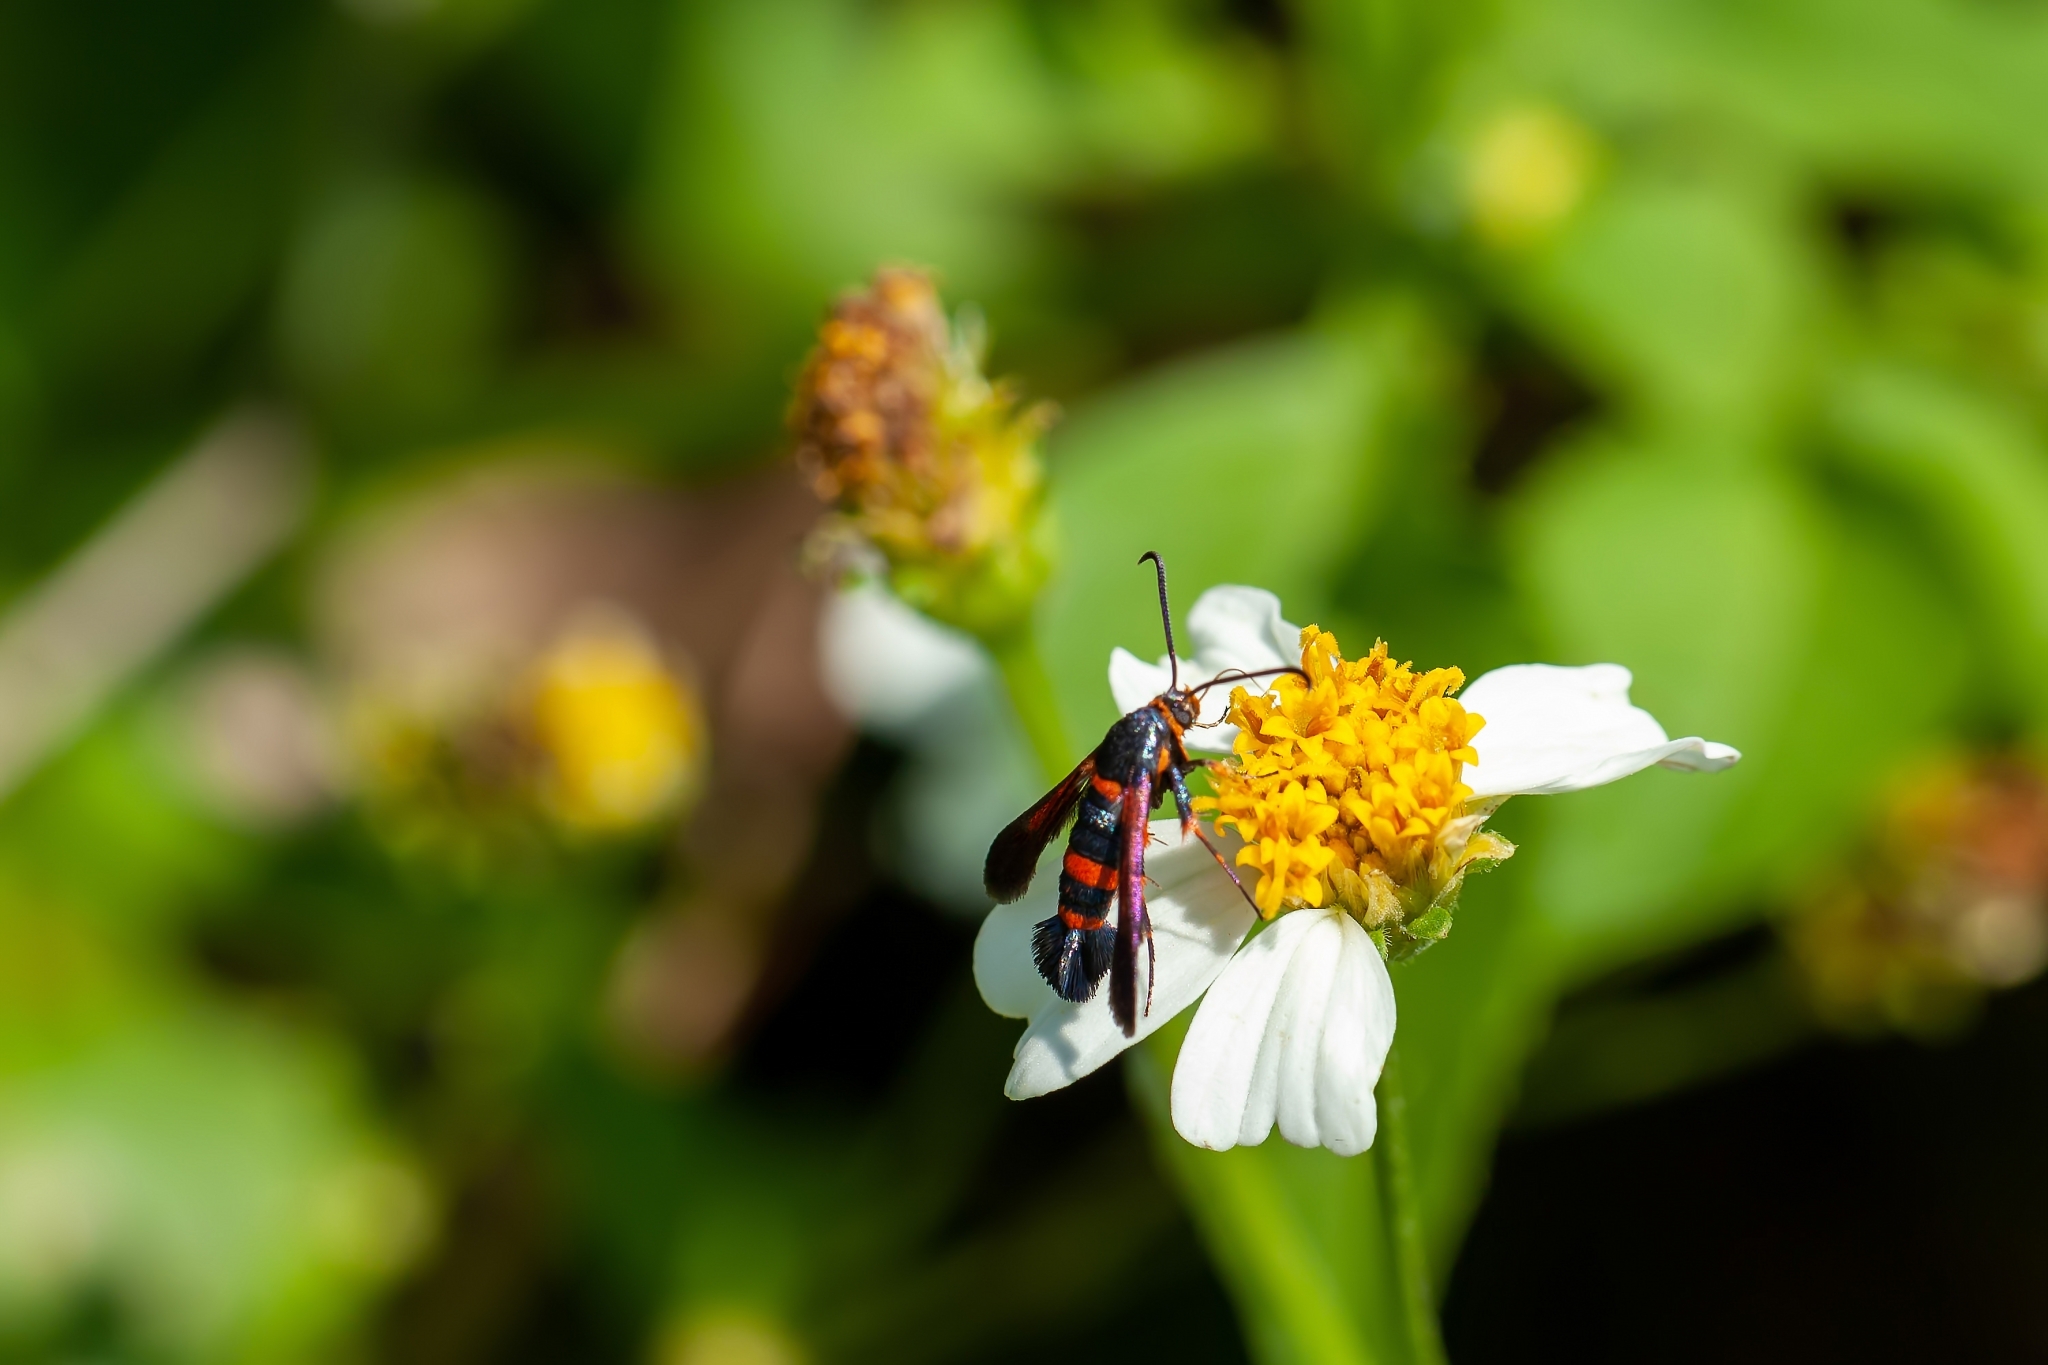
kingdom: Animalia
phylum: Arthropoda
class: Insecta
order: Lepidoptera
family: Sesiidae
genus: Synanthedon
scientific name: Synanthedon sapygaeformis
